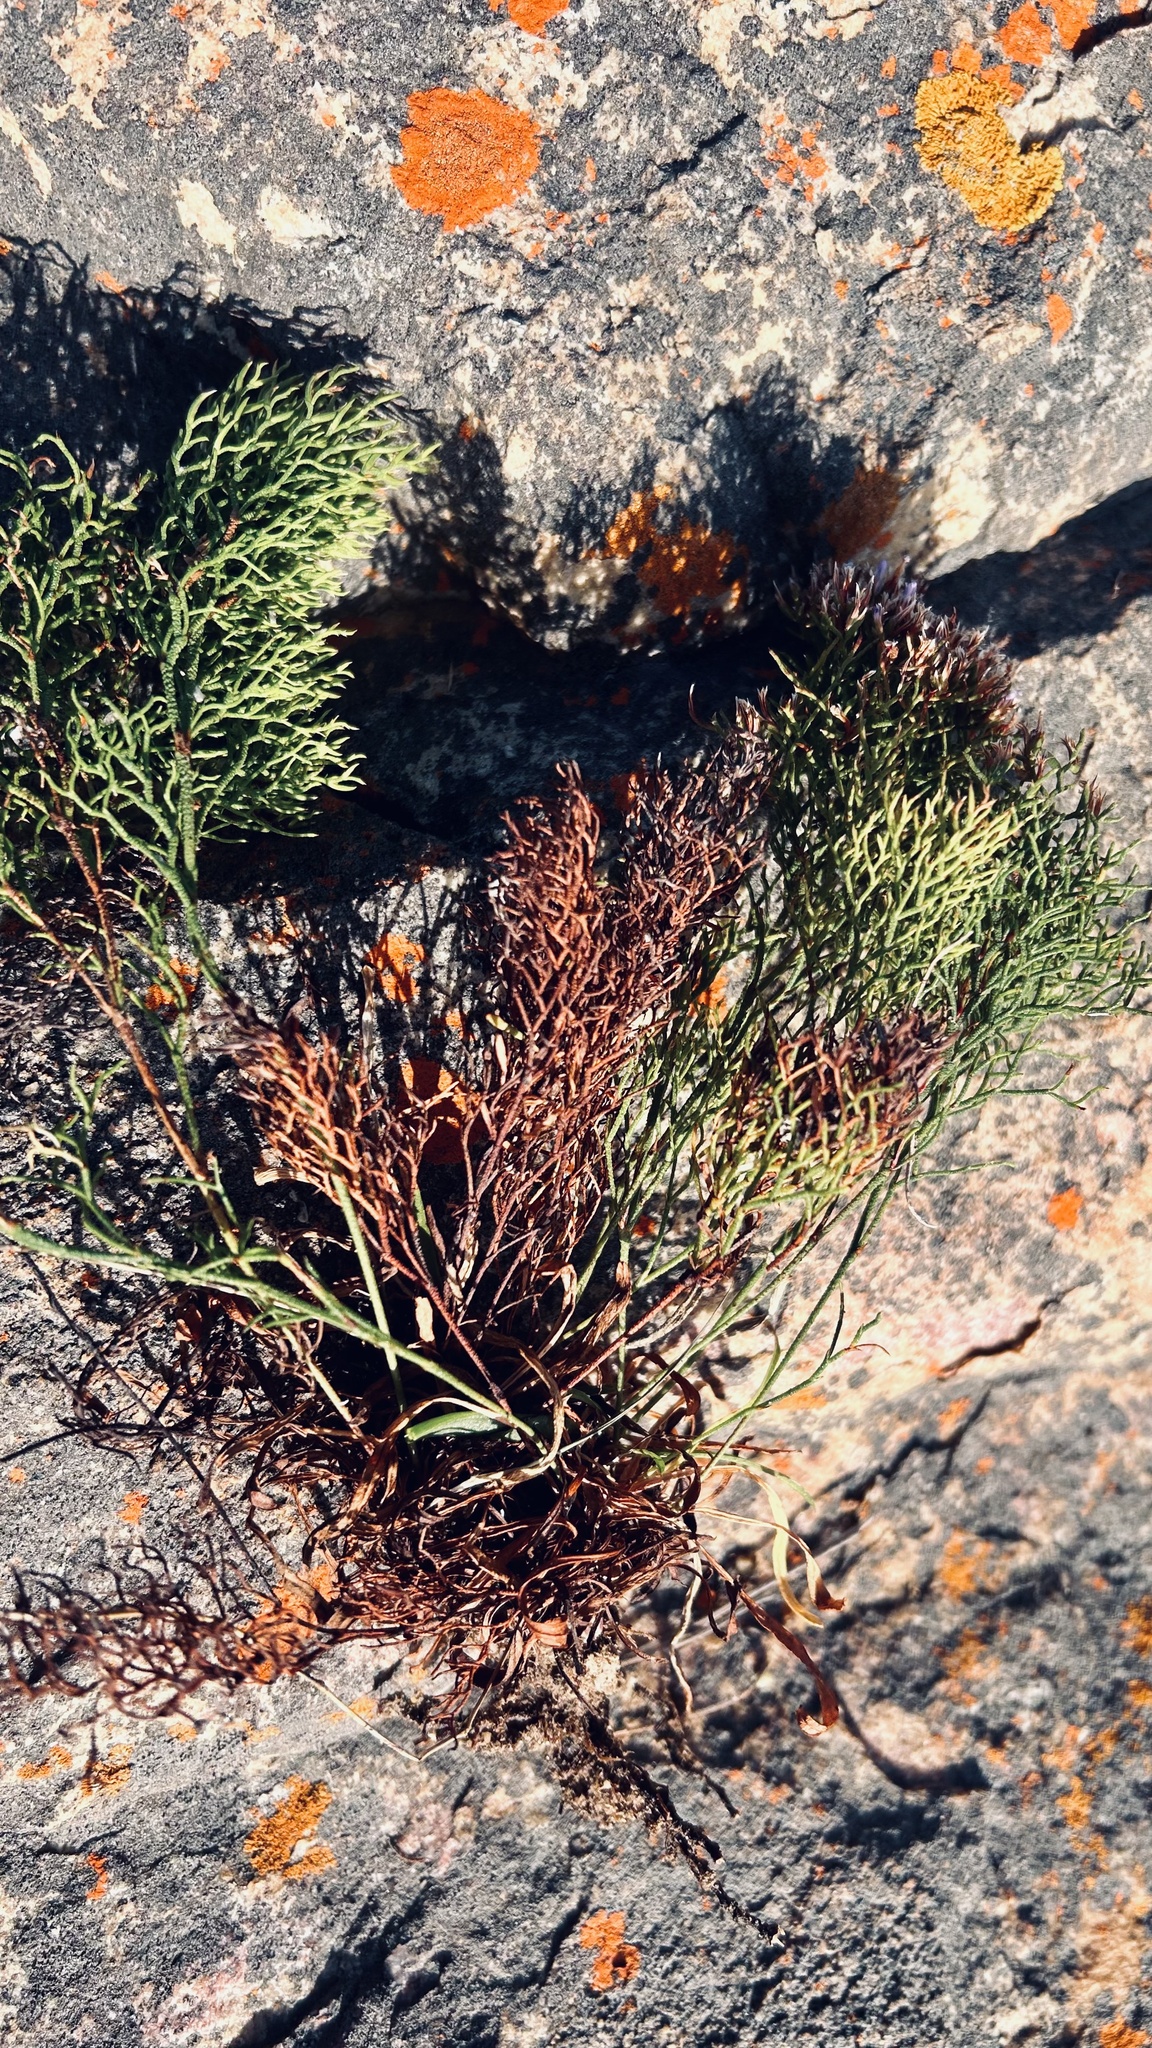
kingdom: Plantae
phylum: Tracheophyta
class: Magnoliopsida
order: Caryophyllales
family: Plumbaginaceae
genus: Limonium
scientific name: Limonium scabrum
